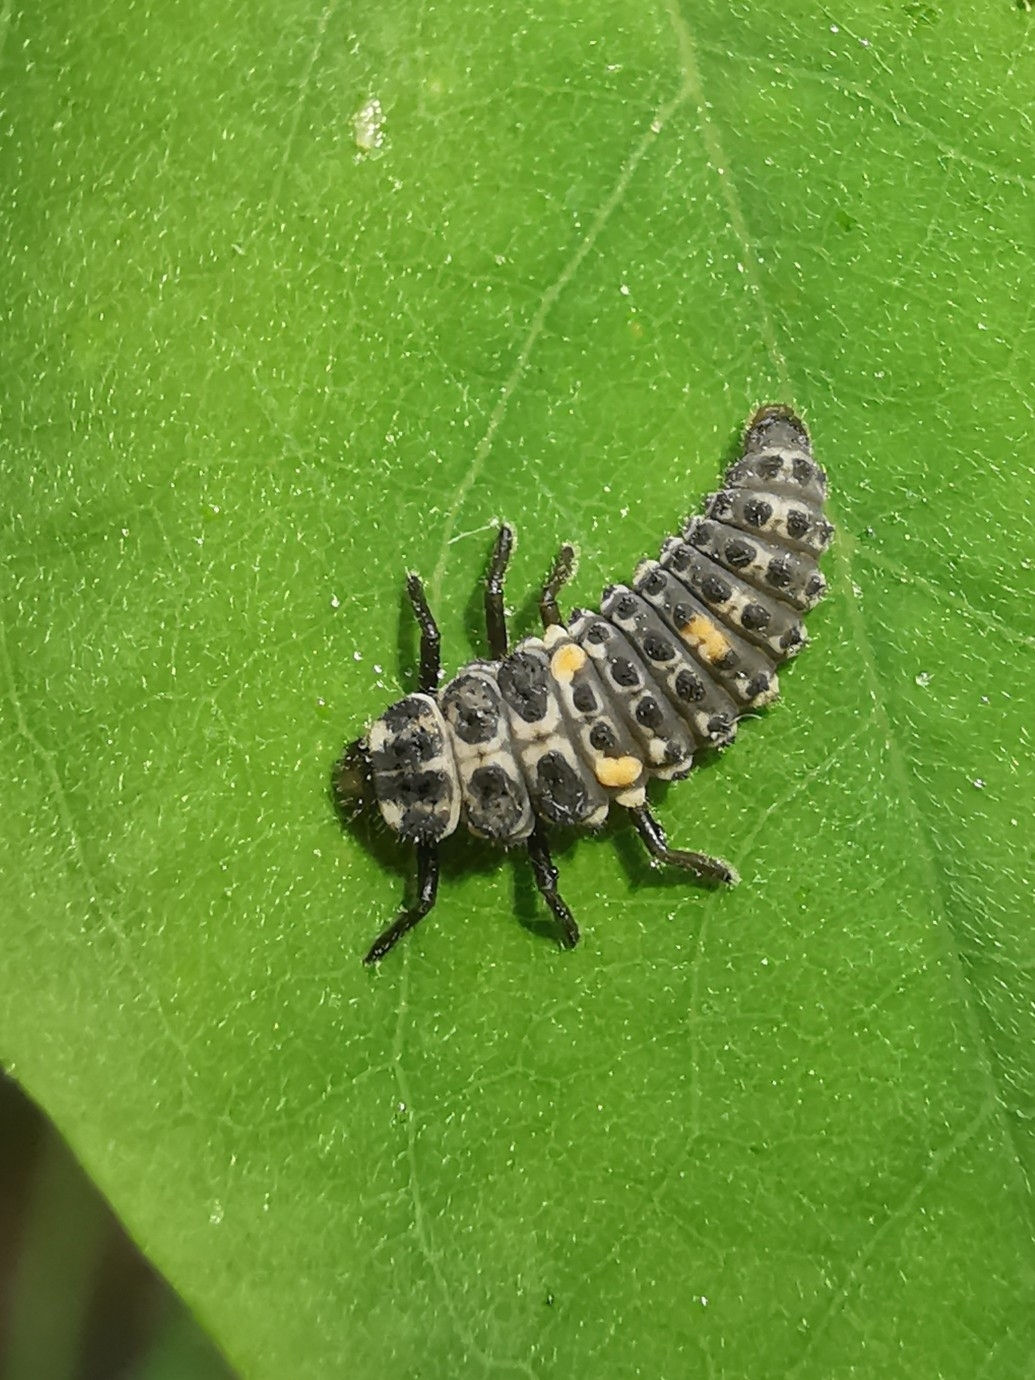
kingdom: Animalia
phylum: Arthropoda
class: Insecta
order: Coleoptera
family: Coccinellidae
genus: Adalia
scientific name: Adalia decempunctata
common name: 10-spot ladybird
